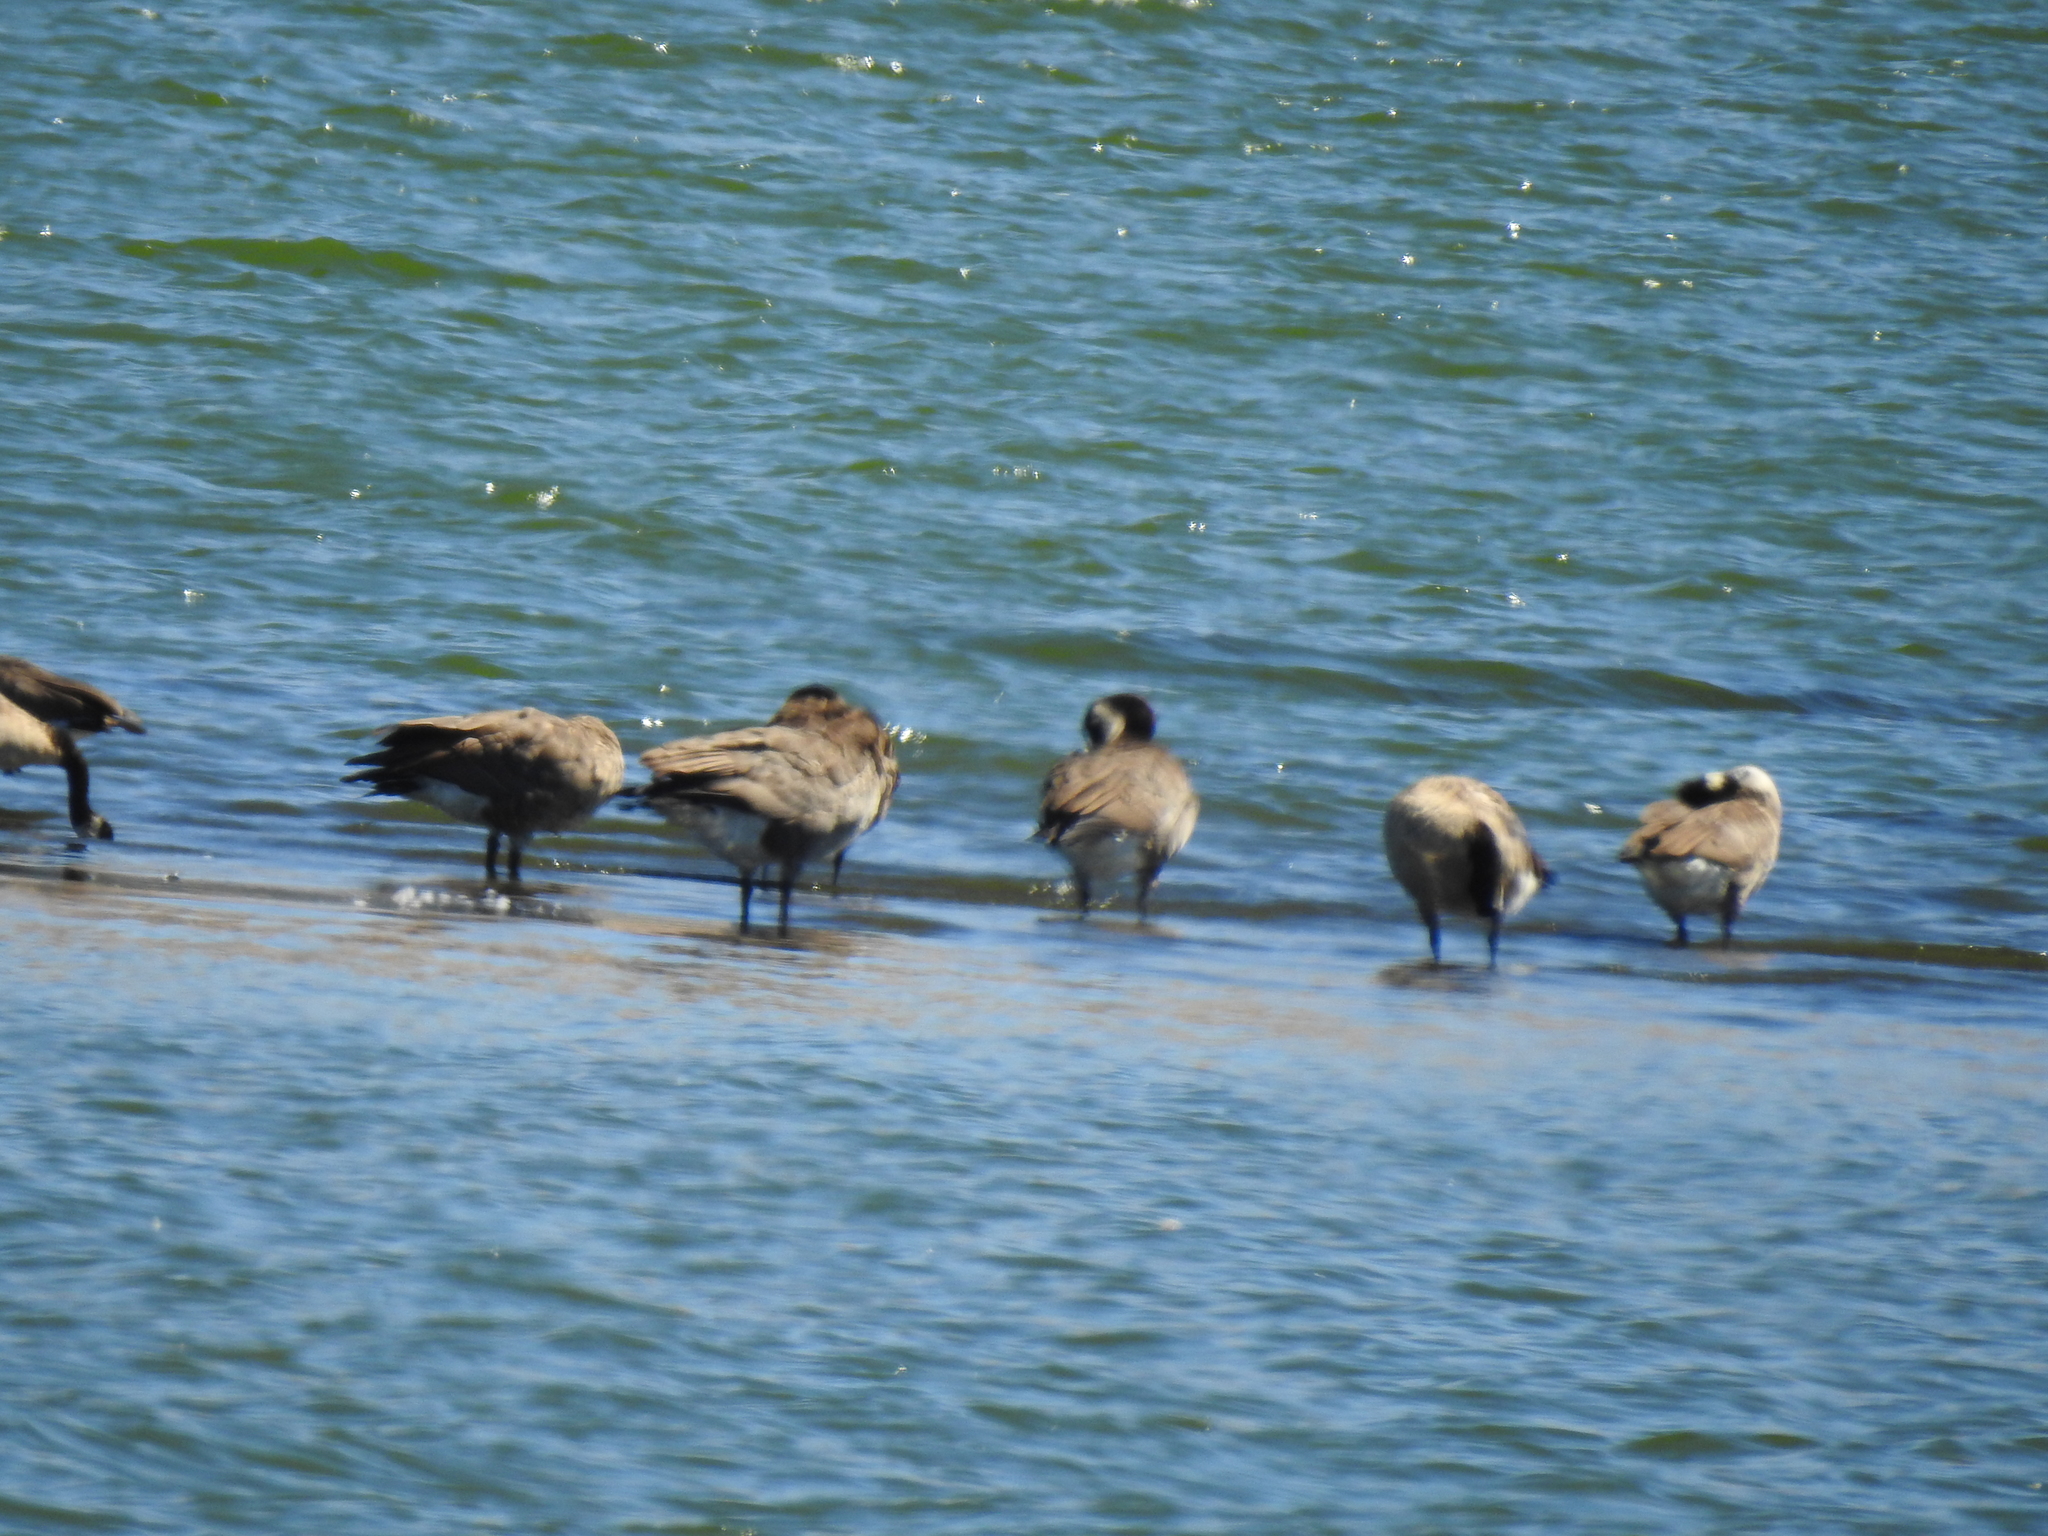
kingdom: Animalia
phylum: Chordata
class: Aves
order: Anseriformes
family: Anatidae
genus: Branta
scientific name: Branta canadensis
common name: Canada goose
